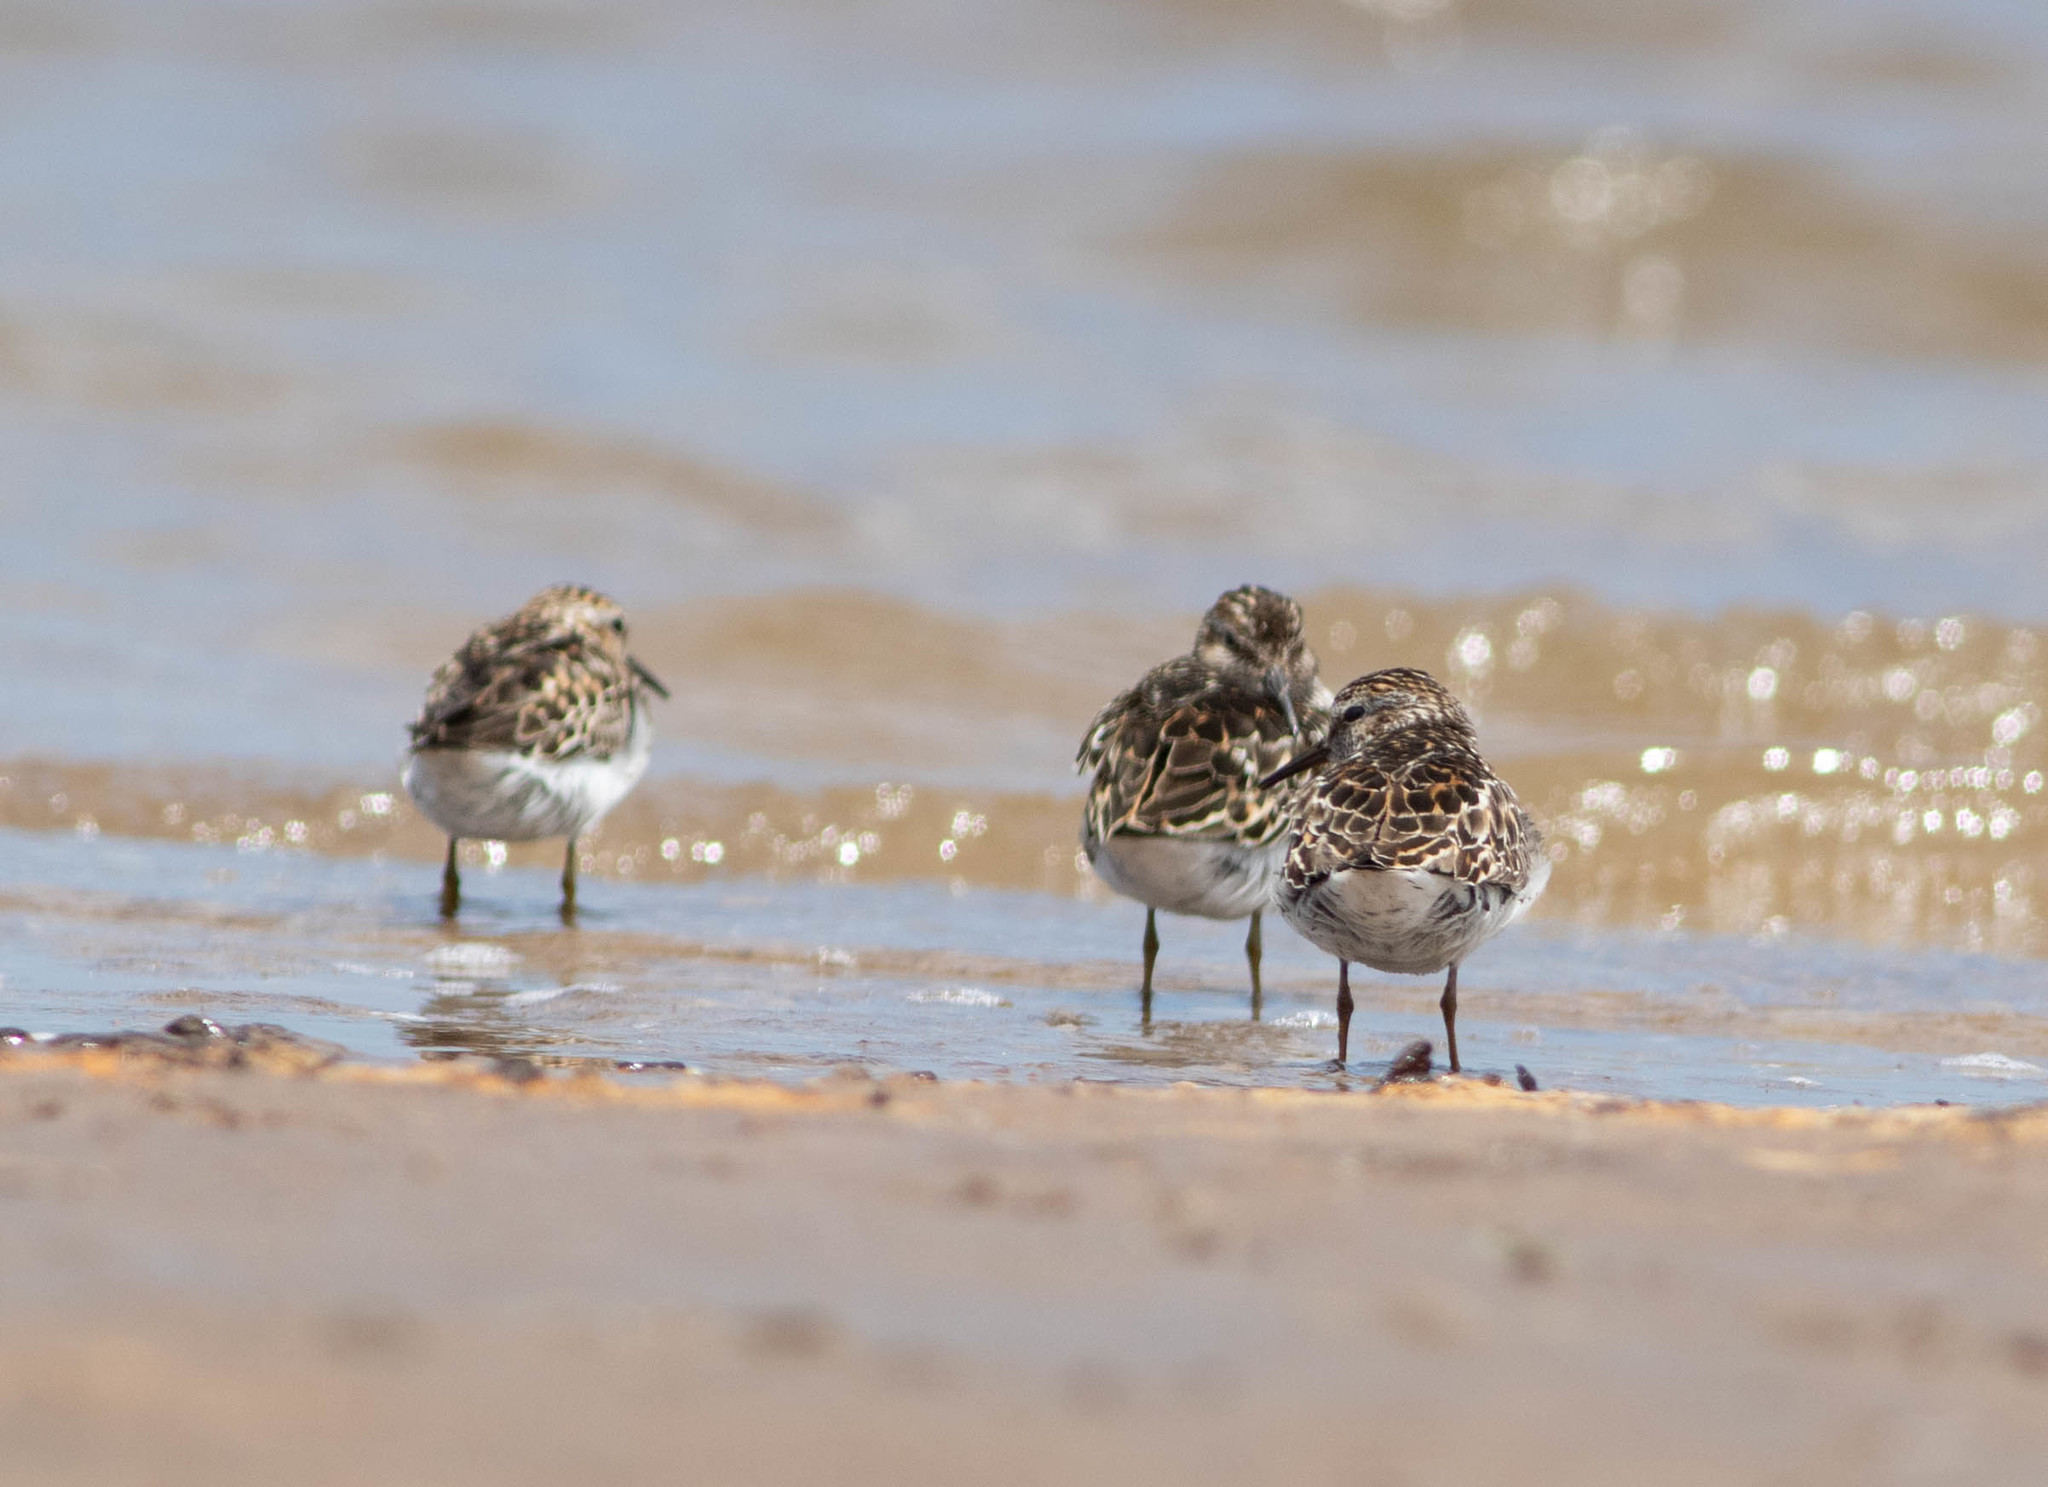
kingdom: Animalia
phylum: Chordata
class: Aves
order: Charadriiformes
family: Scolopacidae
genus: Calidris
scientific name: Calidris minutilla
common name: Least sandpiper
